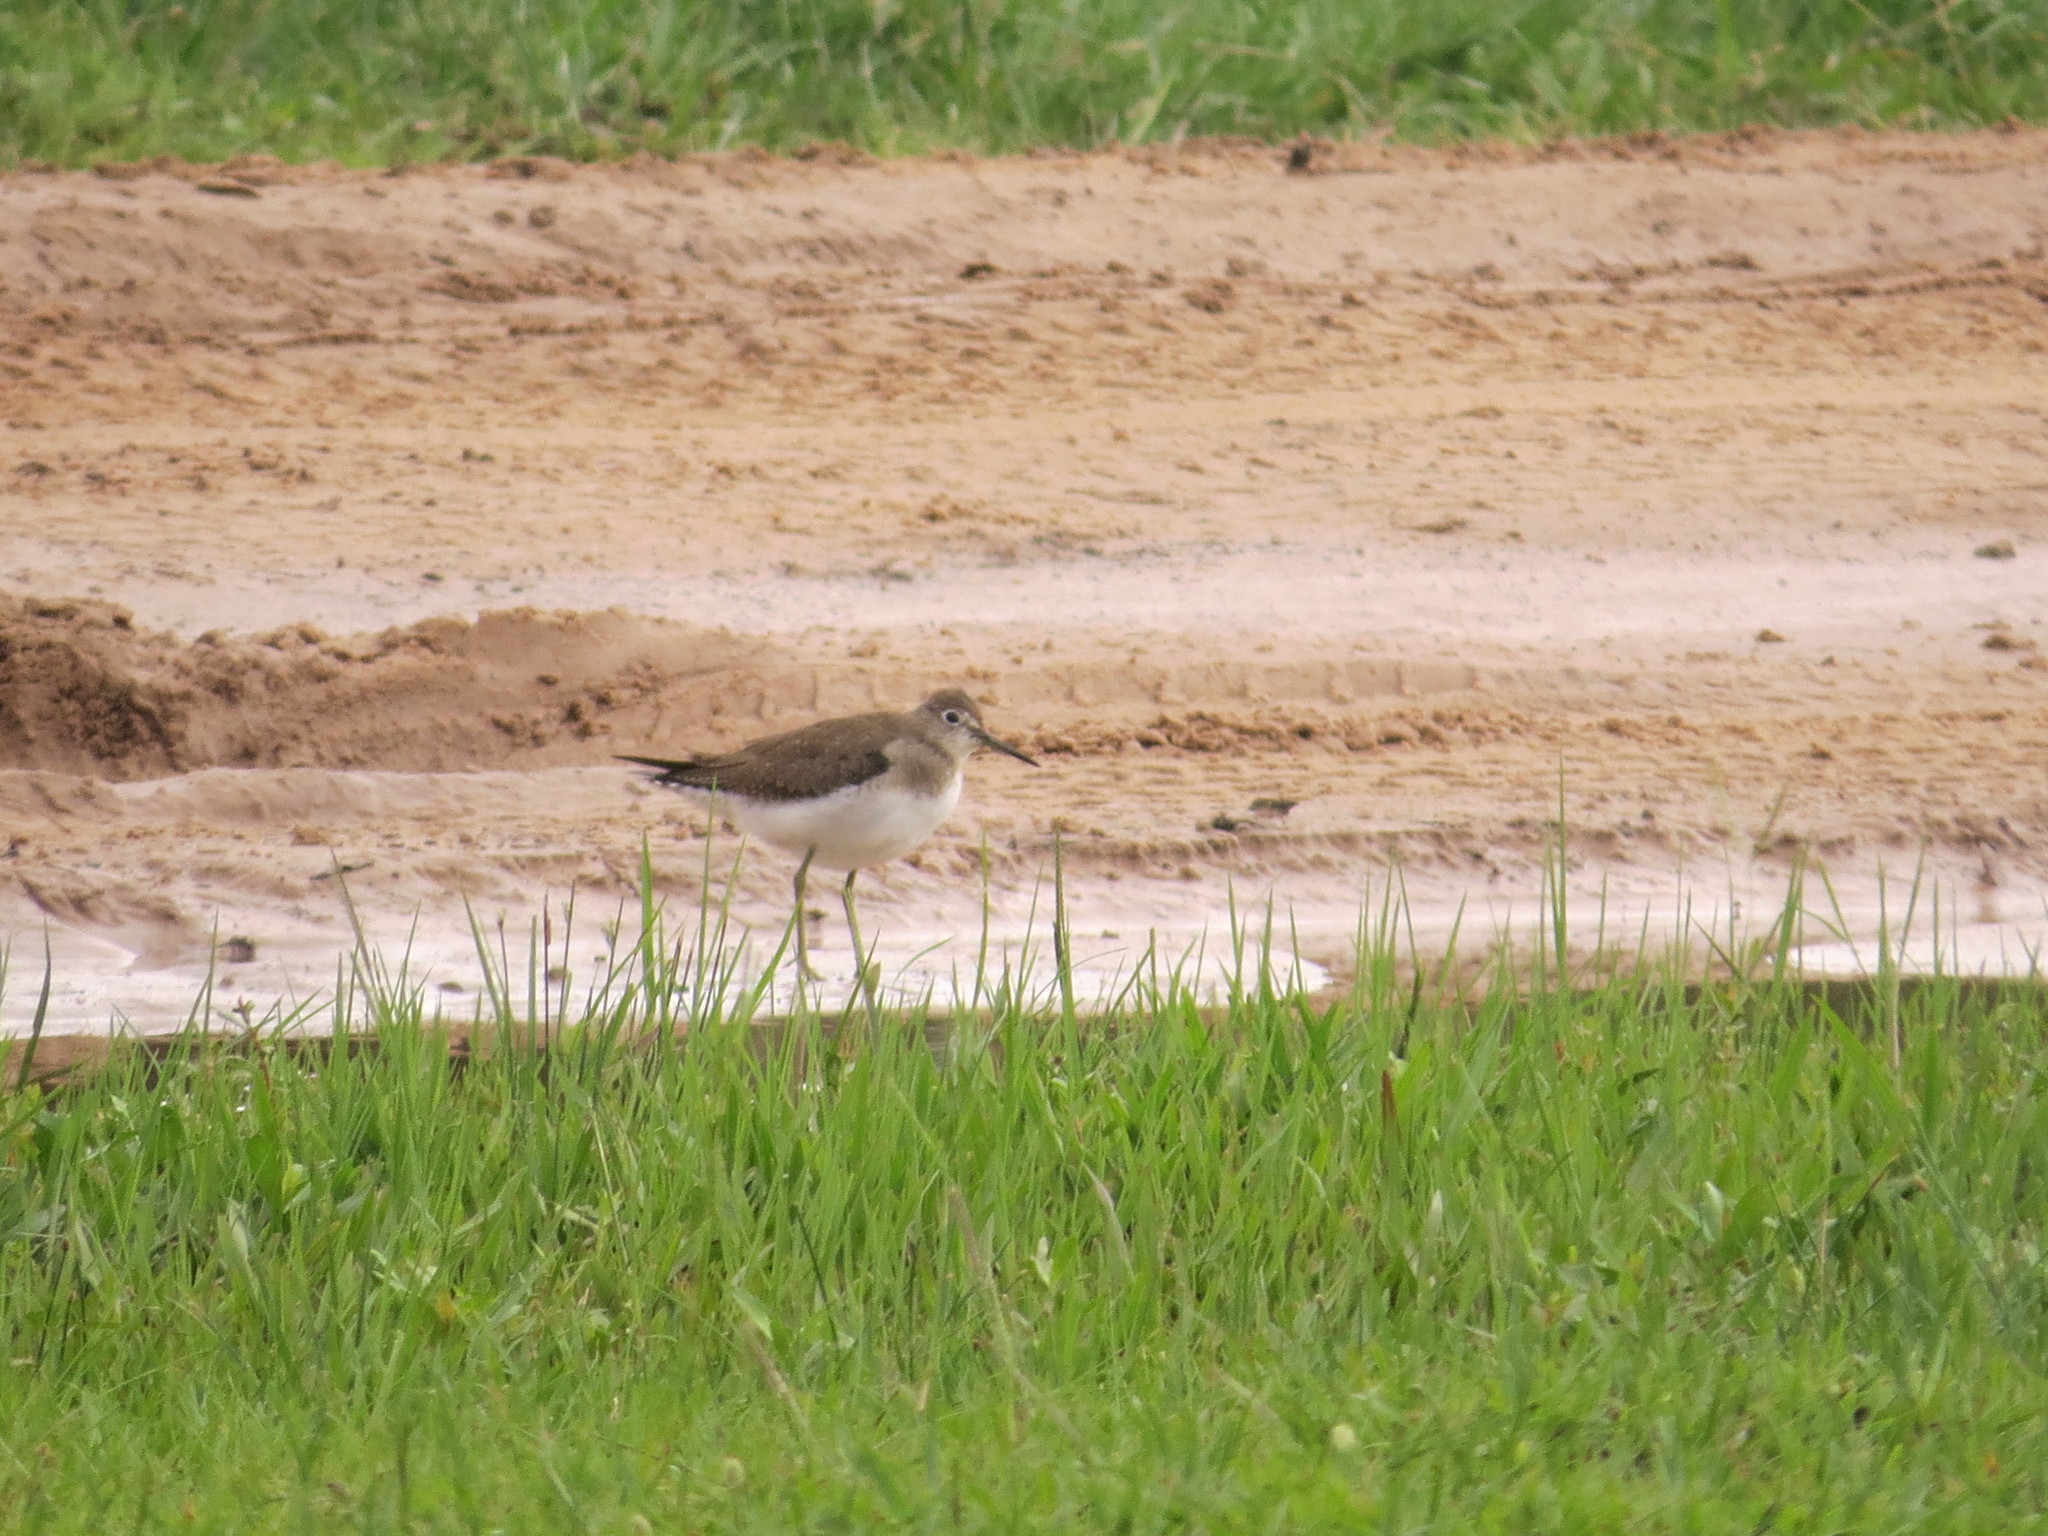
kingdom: Animalia
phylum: Chordata
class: Aves
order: Charadriiformes
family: Scolopacidae
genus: Tringa
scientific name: Tringa solitaria
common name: Solitary sandpiper
